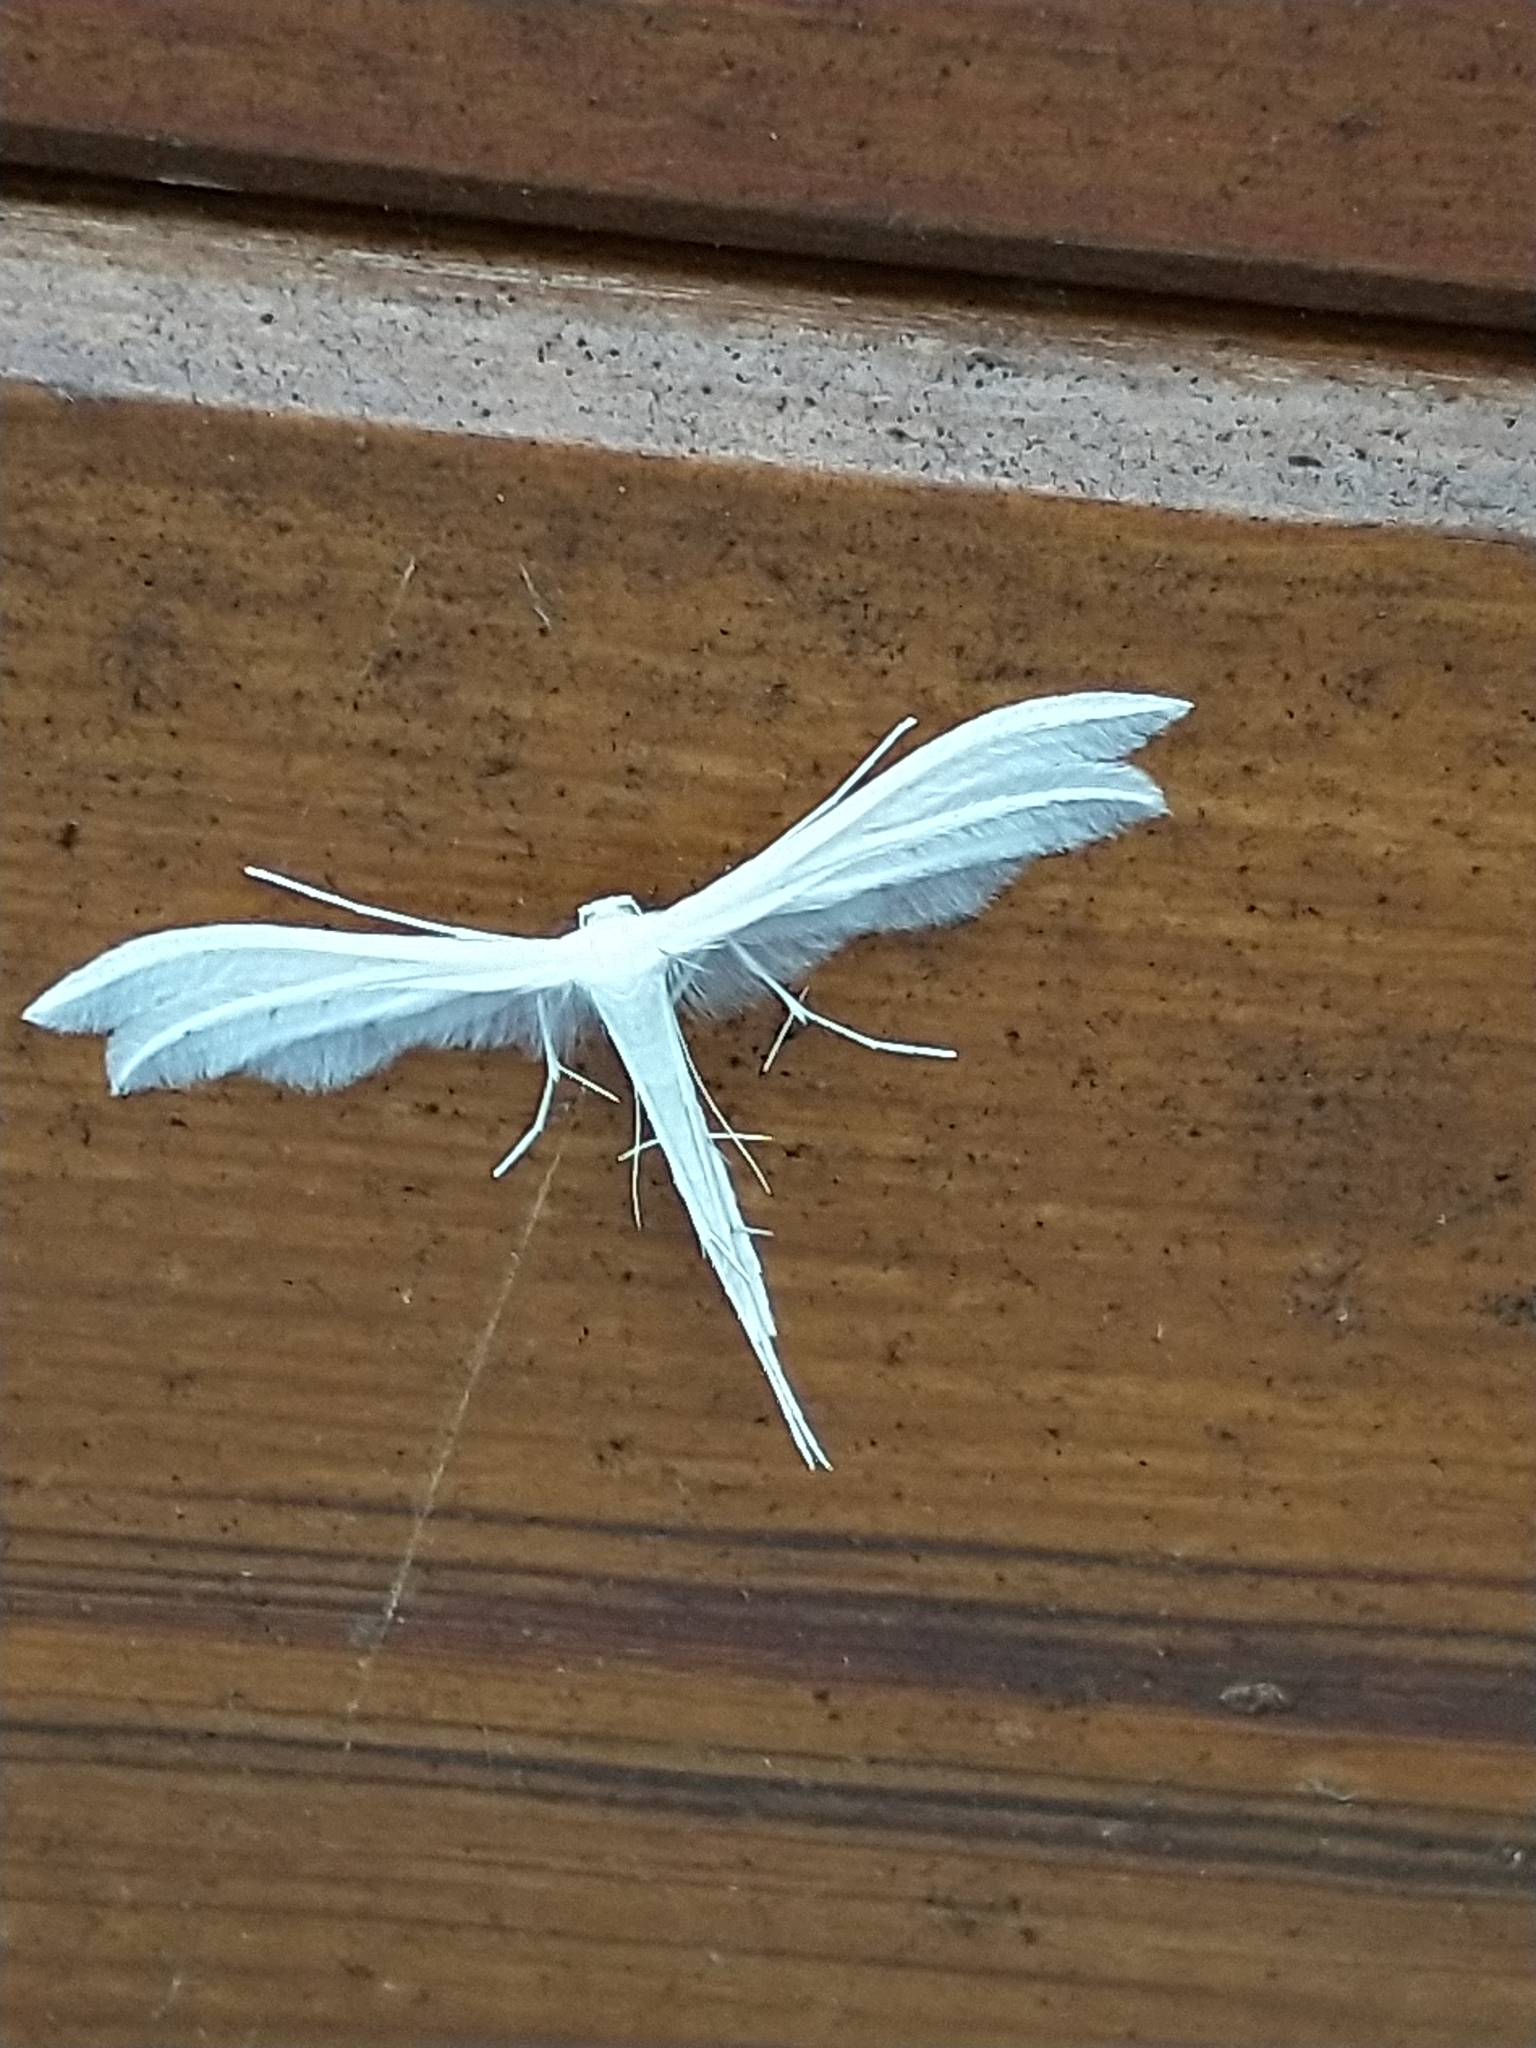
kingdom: Animalia
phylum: Arthropoda
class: Insecta
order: Lepidoptera
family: Pterophoridae
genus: Pterophorus
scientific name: Pterophorus pentadactyla
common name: White plume moth
